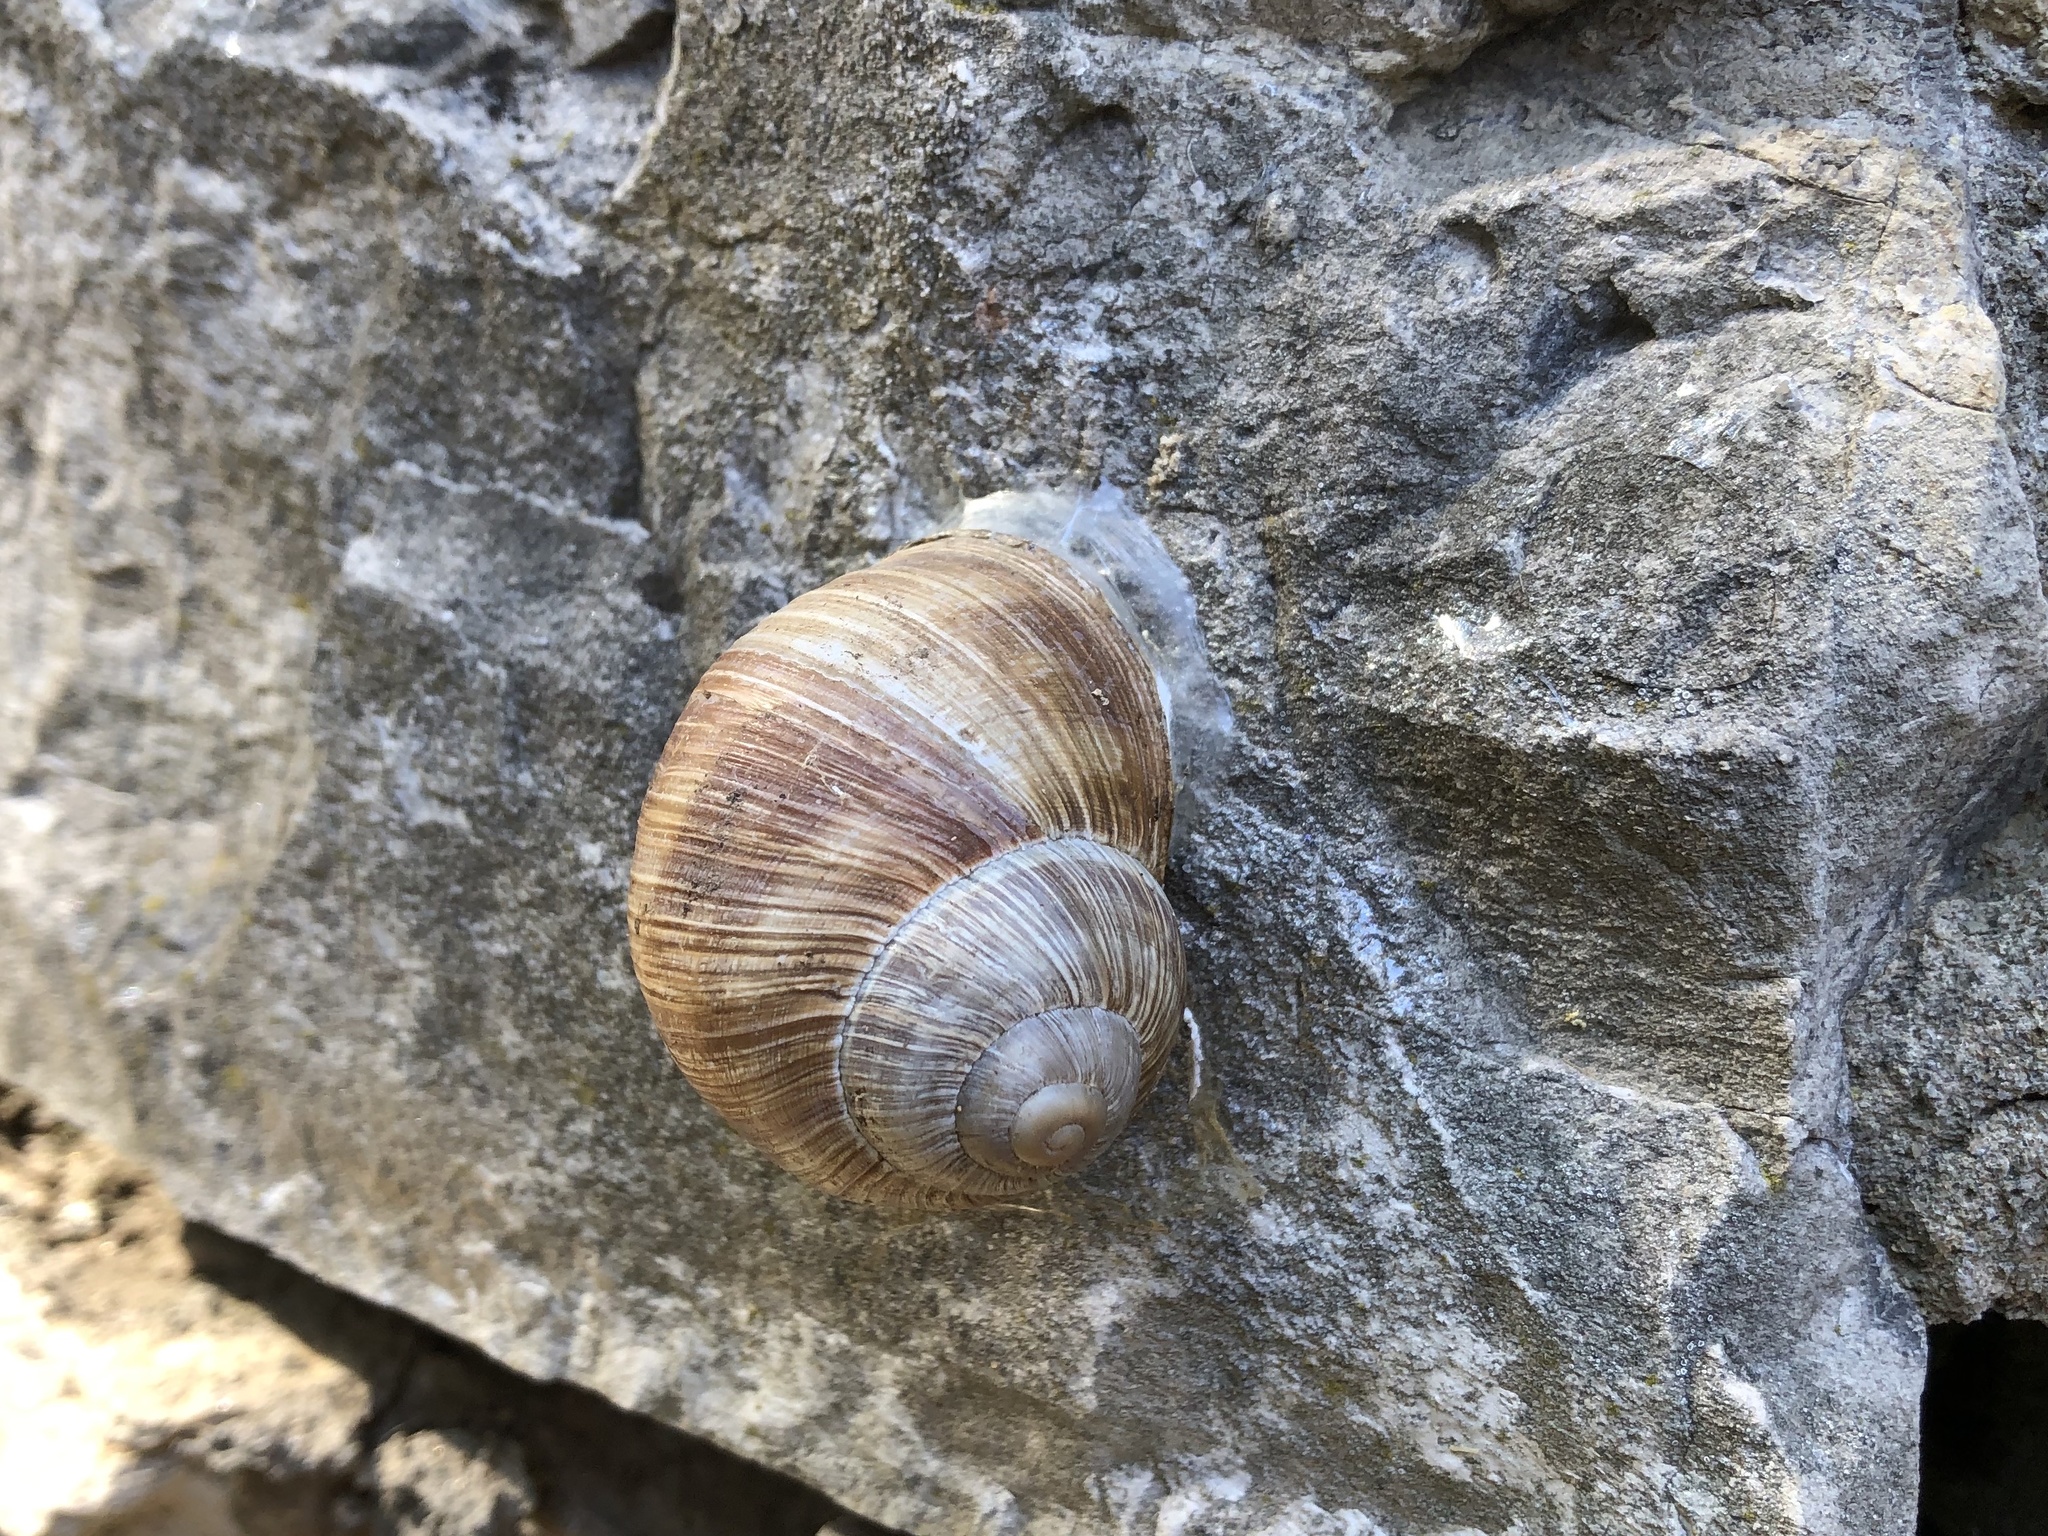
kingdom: Animalia
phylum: Mollusca
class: Gastropoda
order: Stylommatophora
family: Helicidae
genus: Helix
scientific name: Helix pomatia
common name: Roman snail
